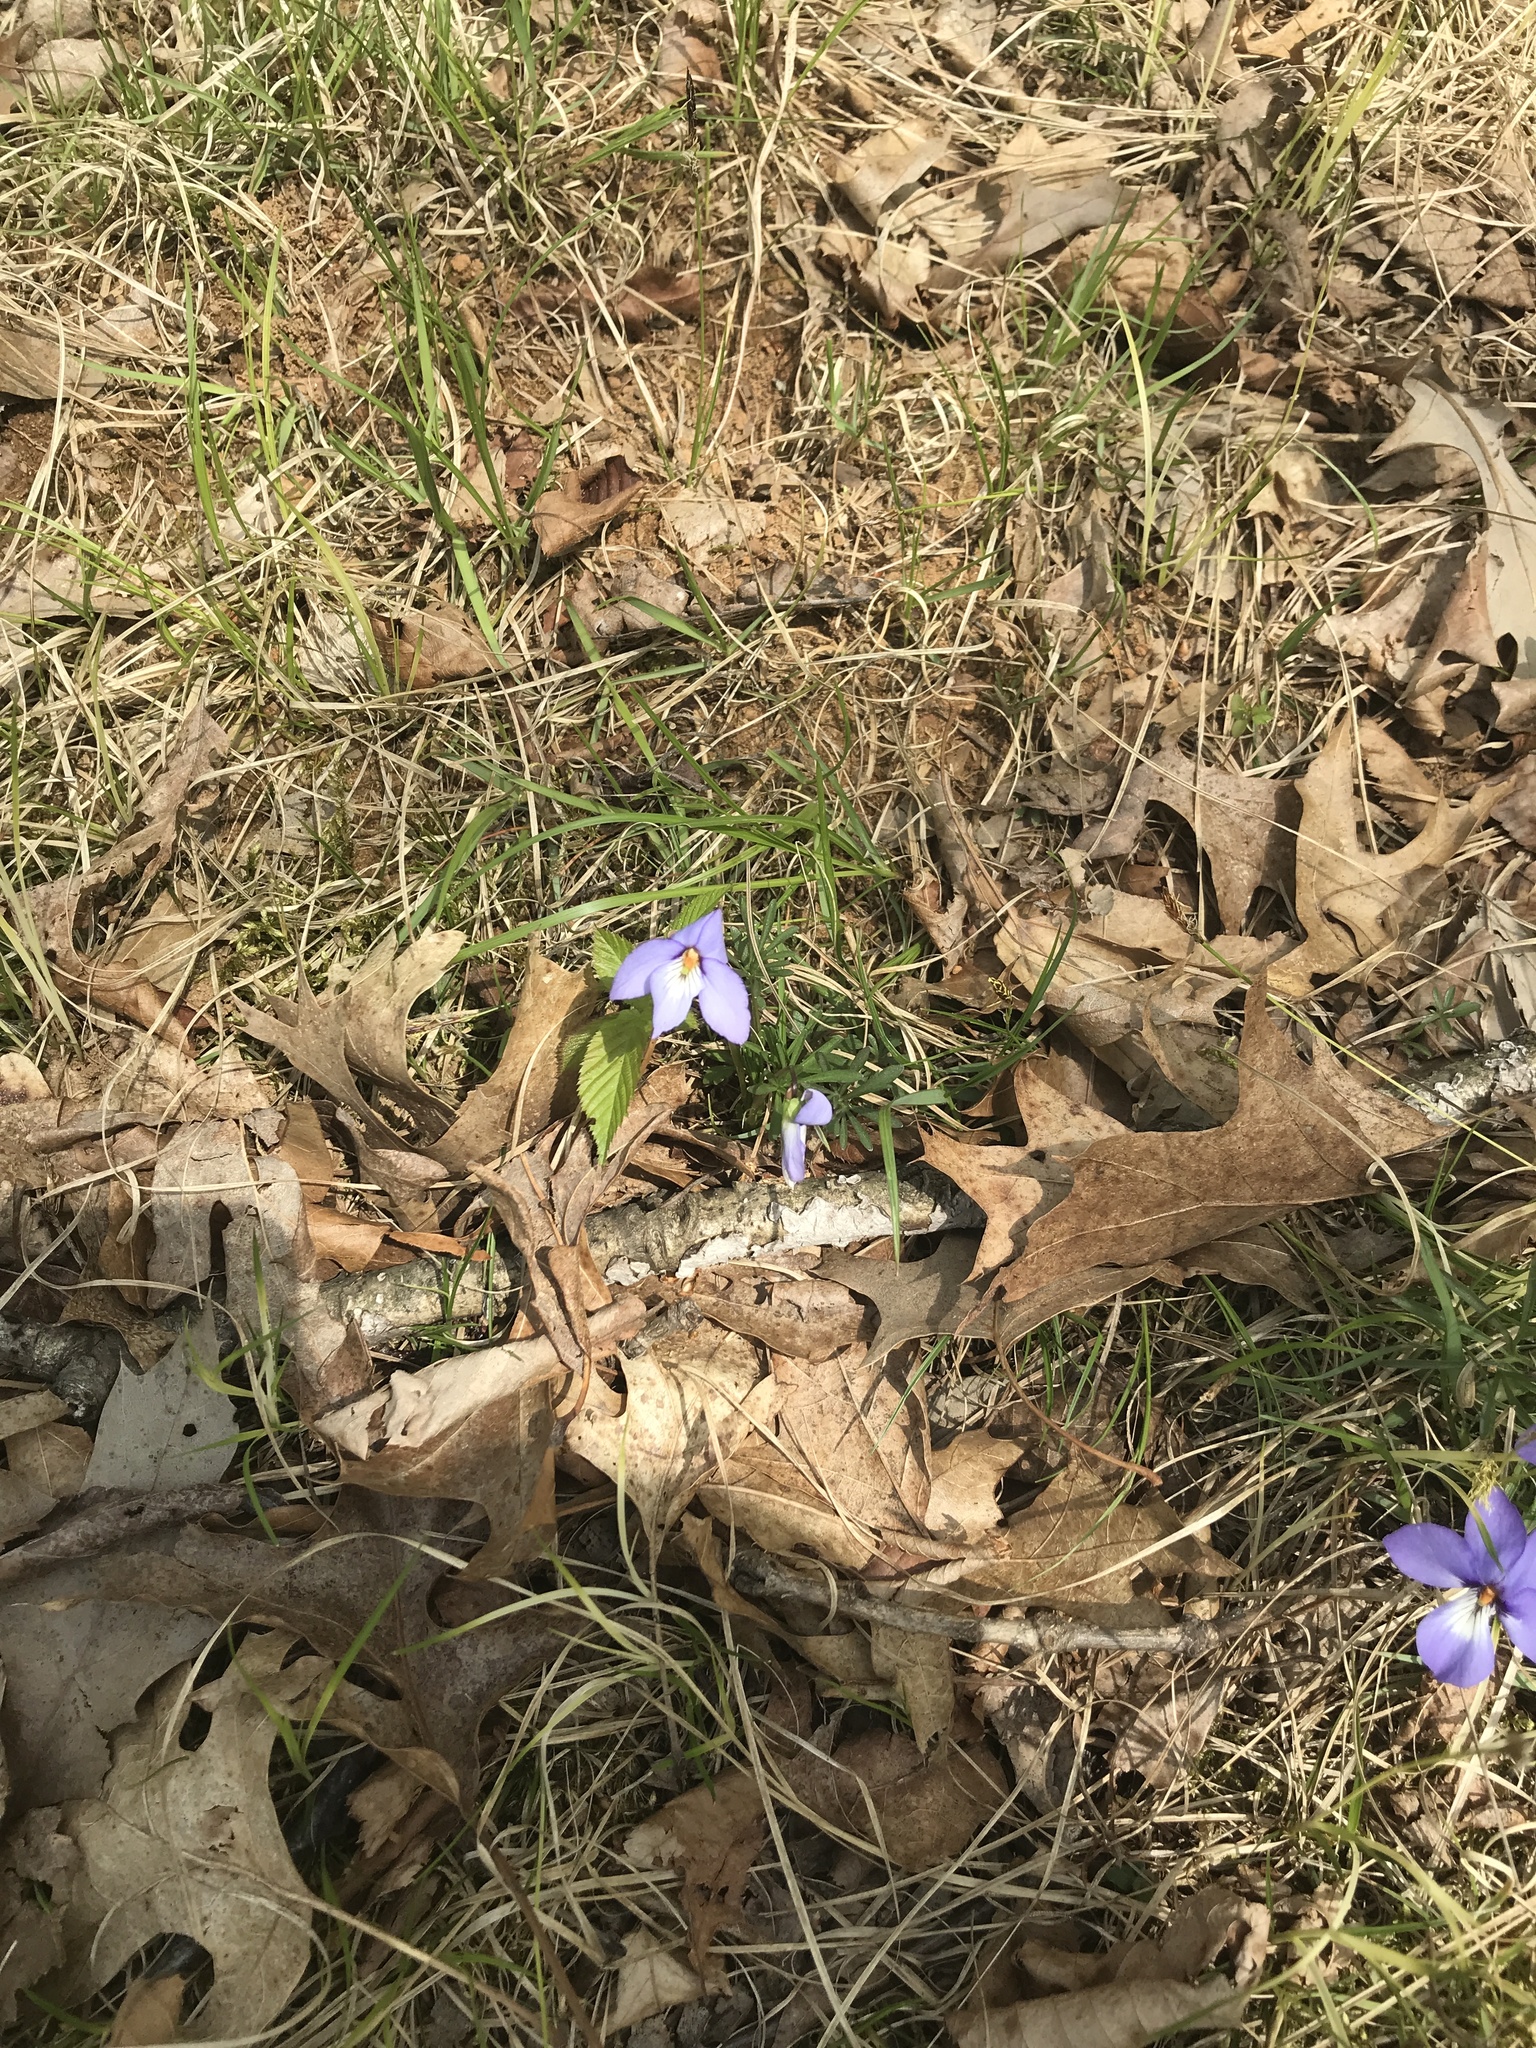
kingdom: Plantae
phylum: Tracheophyta
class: Magnoliopsida
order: Malpighiales
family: Violaceae
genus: Viola
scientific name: Viola pedata
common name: Pansy violet
